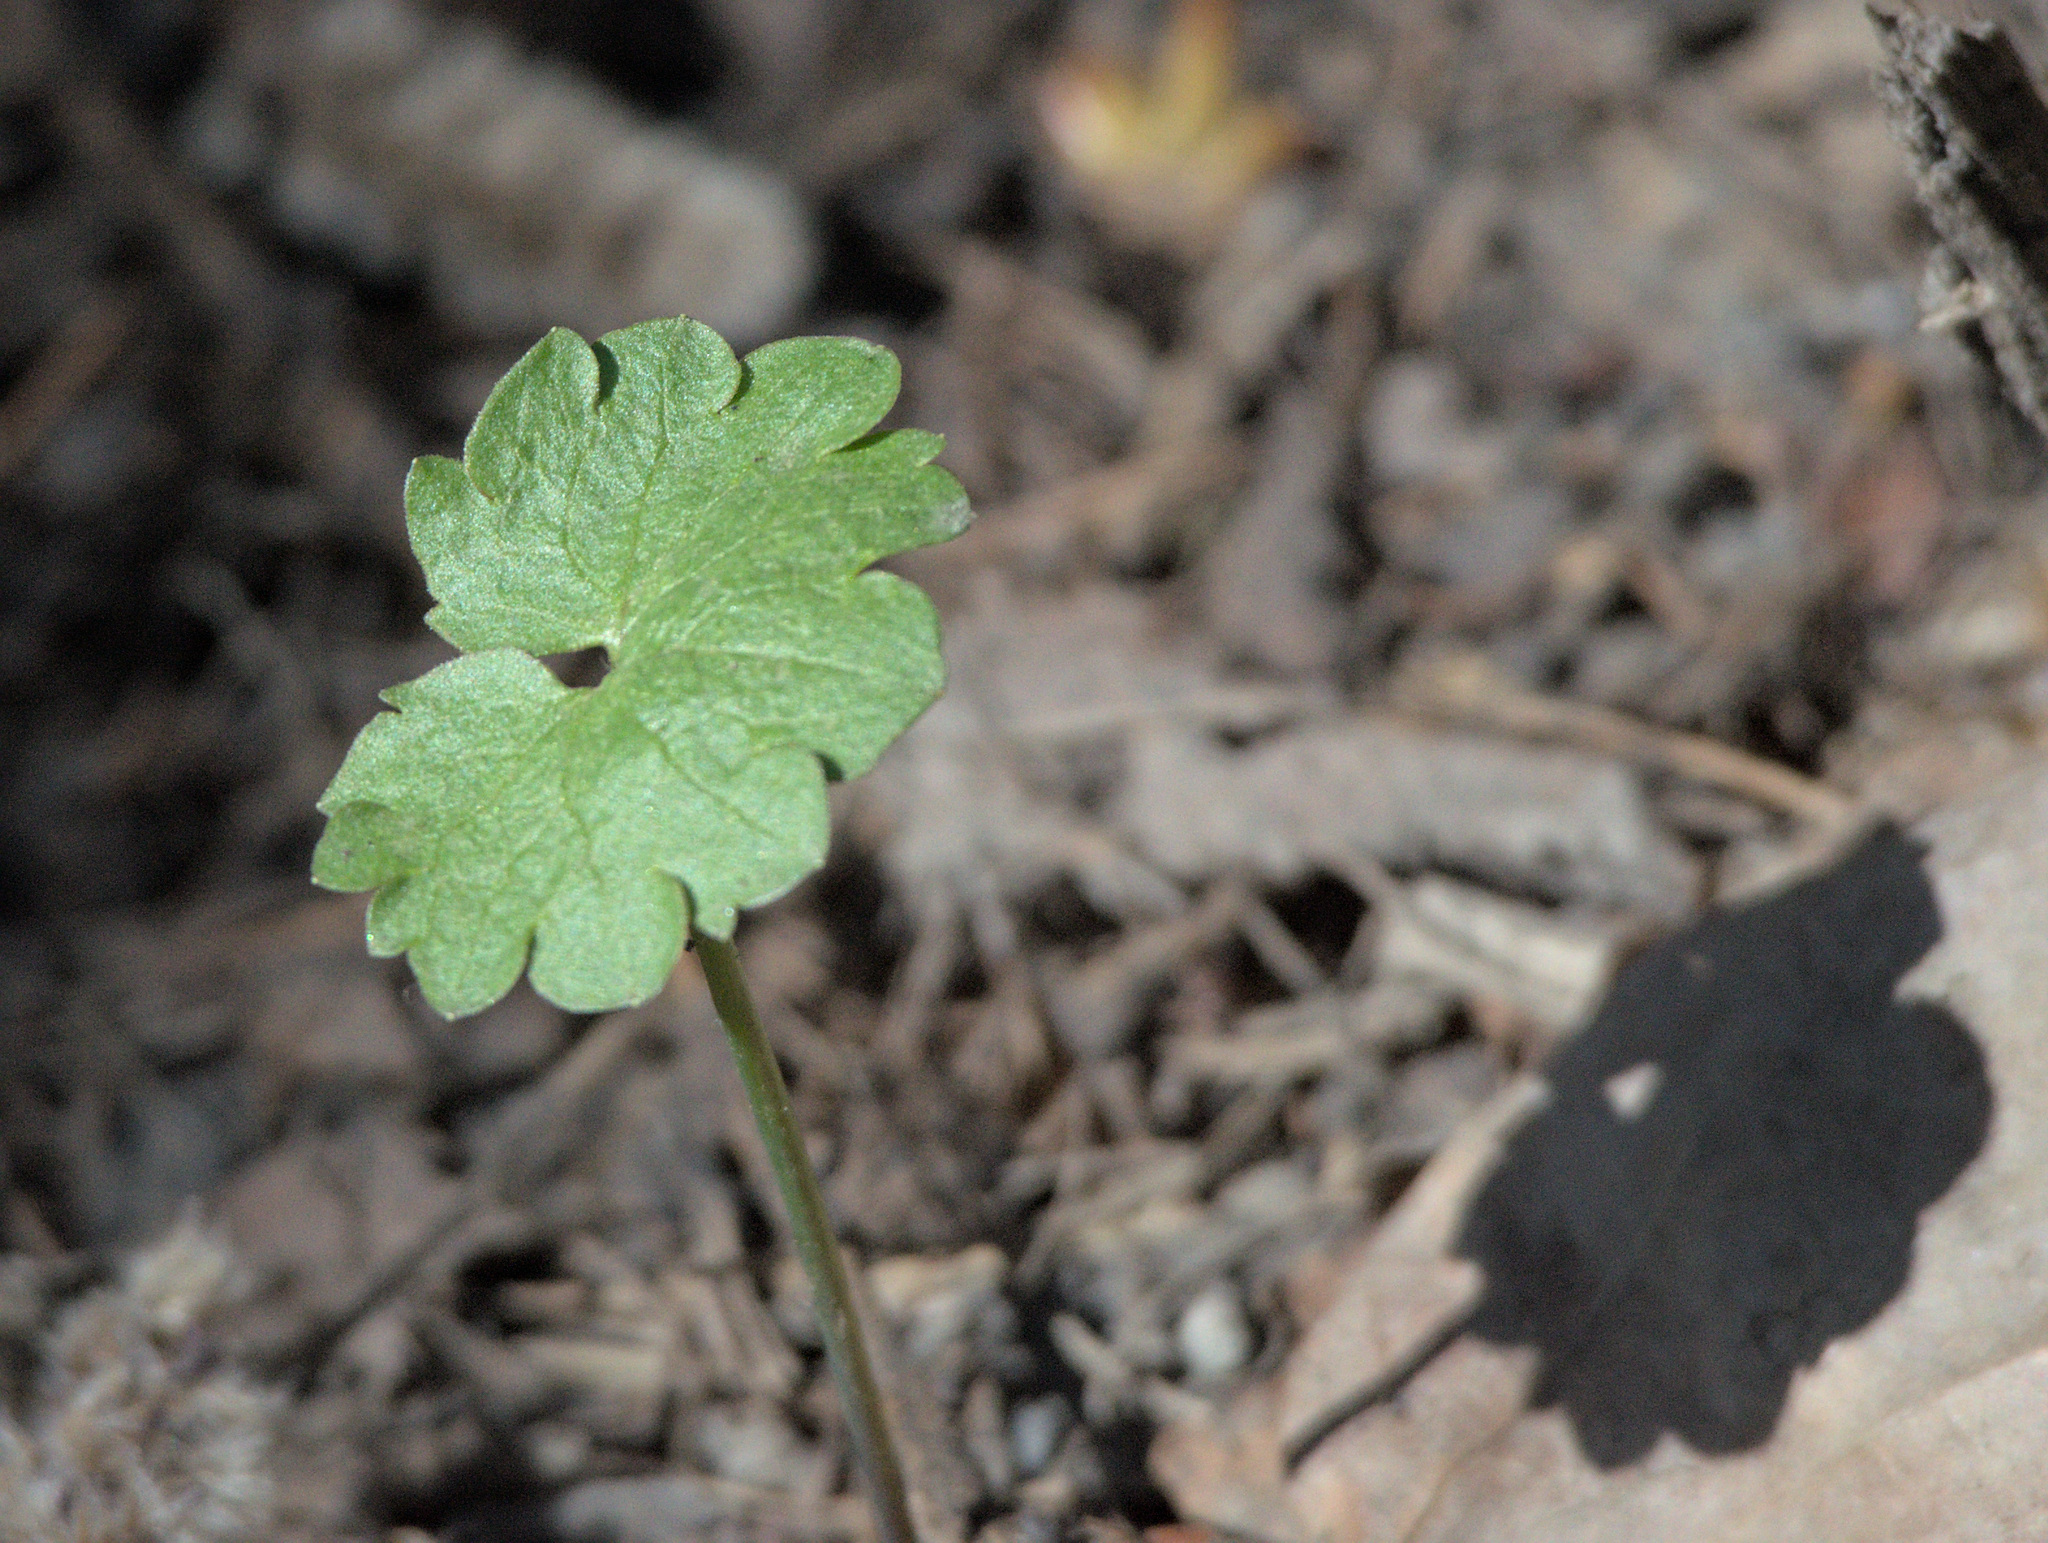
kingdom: Plantae
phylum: Tracheophyta
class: Magnoliopsida
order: Ranunculales
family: Ranunculaceae
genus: Ranunculus
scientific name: Ranunculus monophyllus
